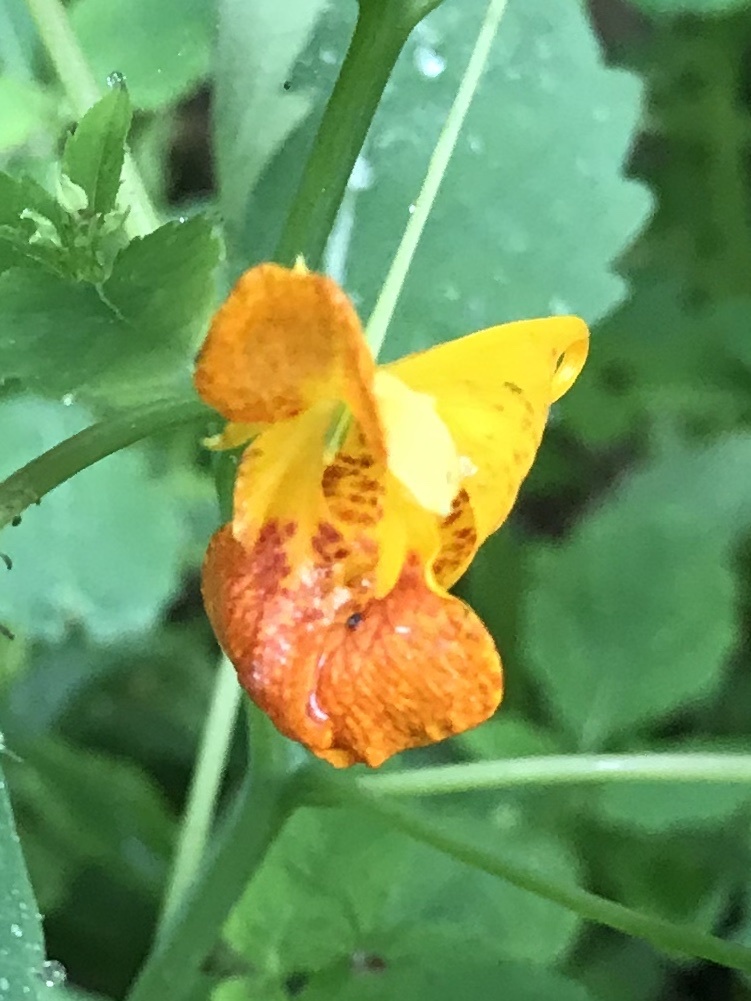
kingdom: Plantae
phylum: Tracheophyta
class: Magnoliopsida
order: Ericales
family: Balsaminaceae
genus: Impatiens
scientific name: Impatiens capensis
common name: Orange balsam
